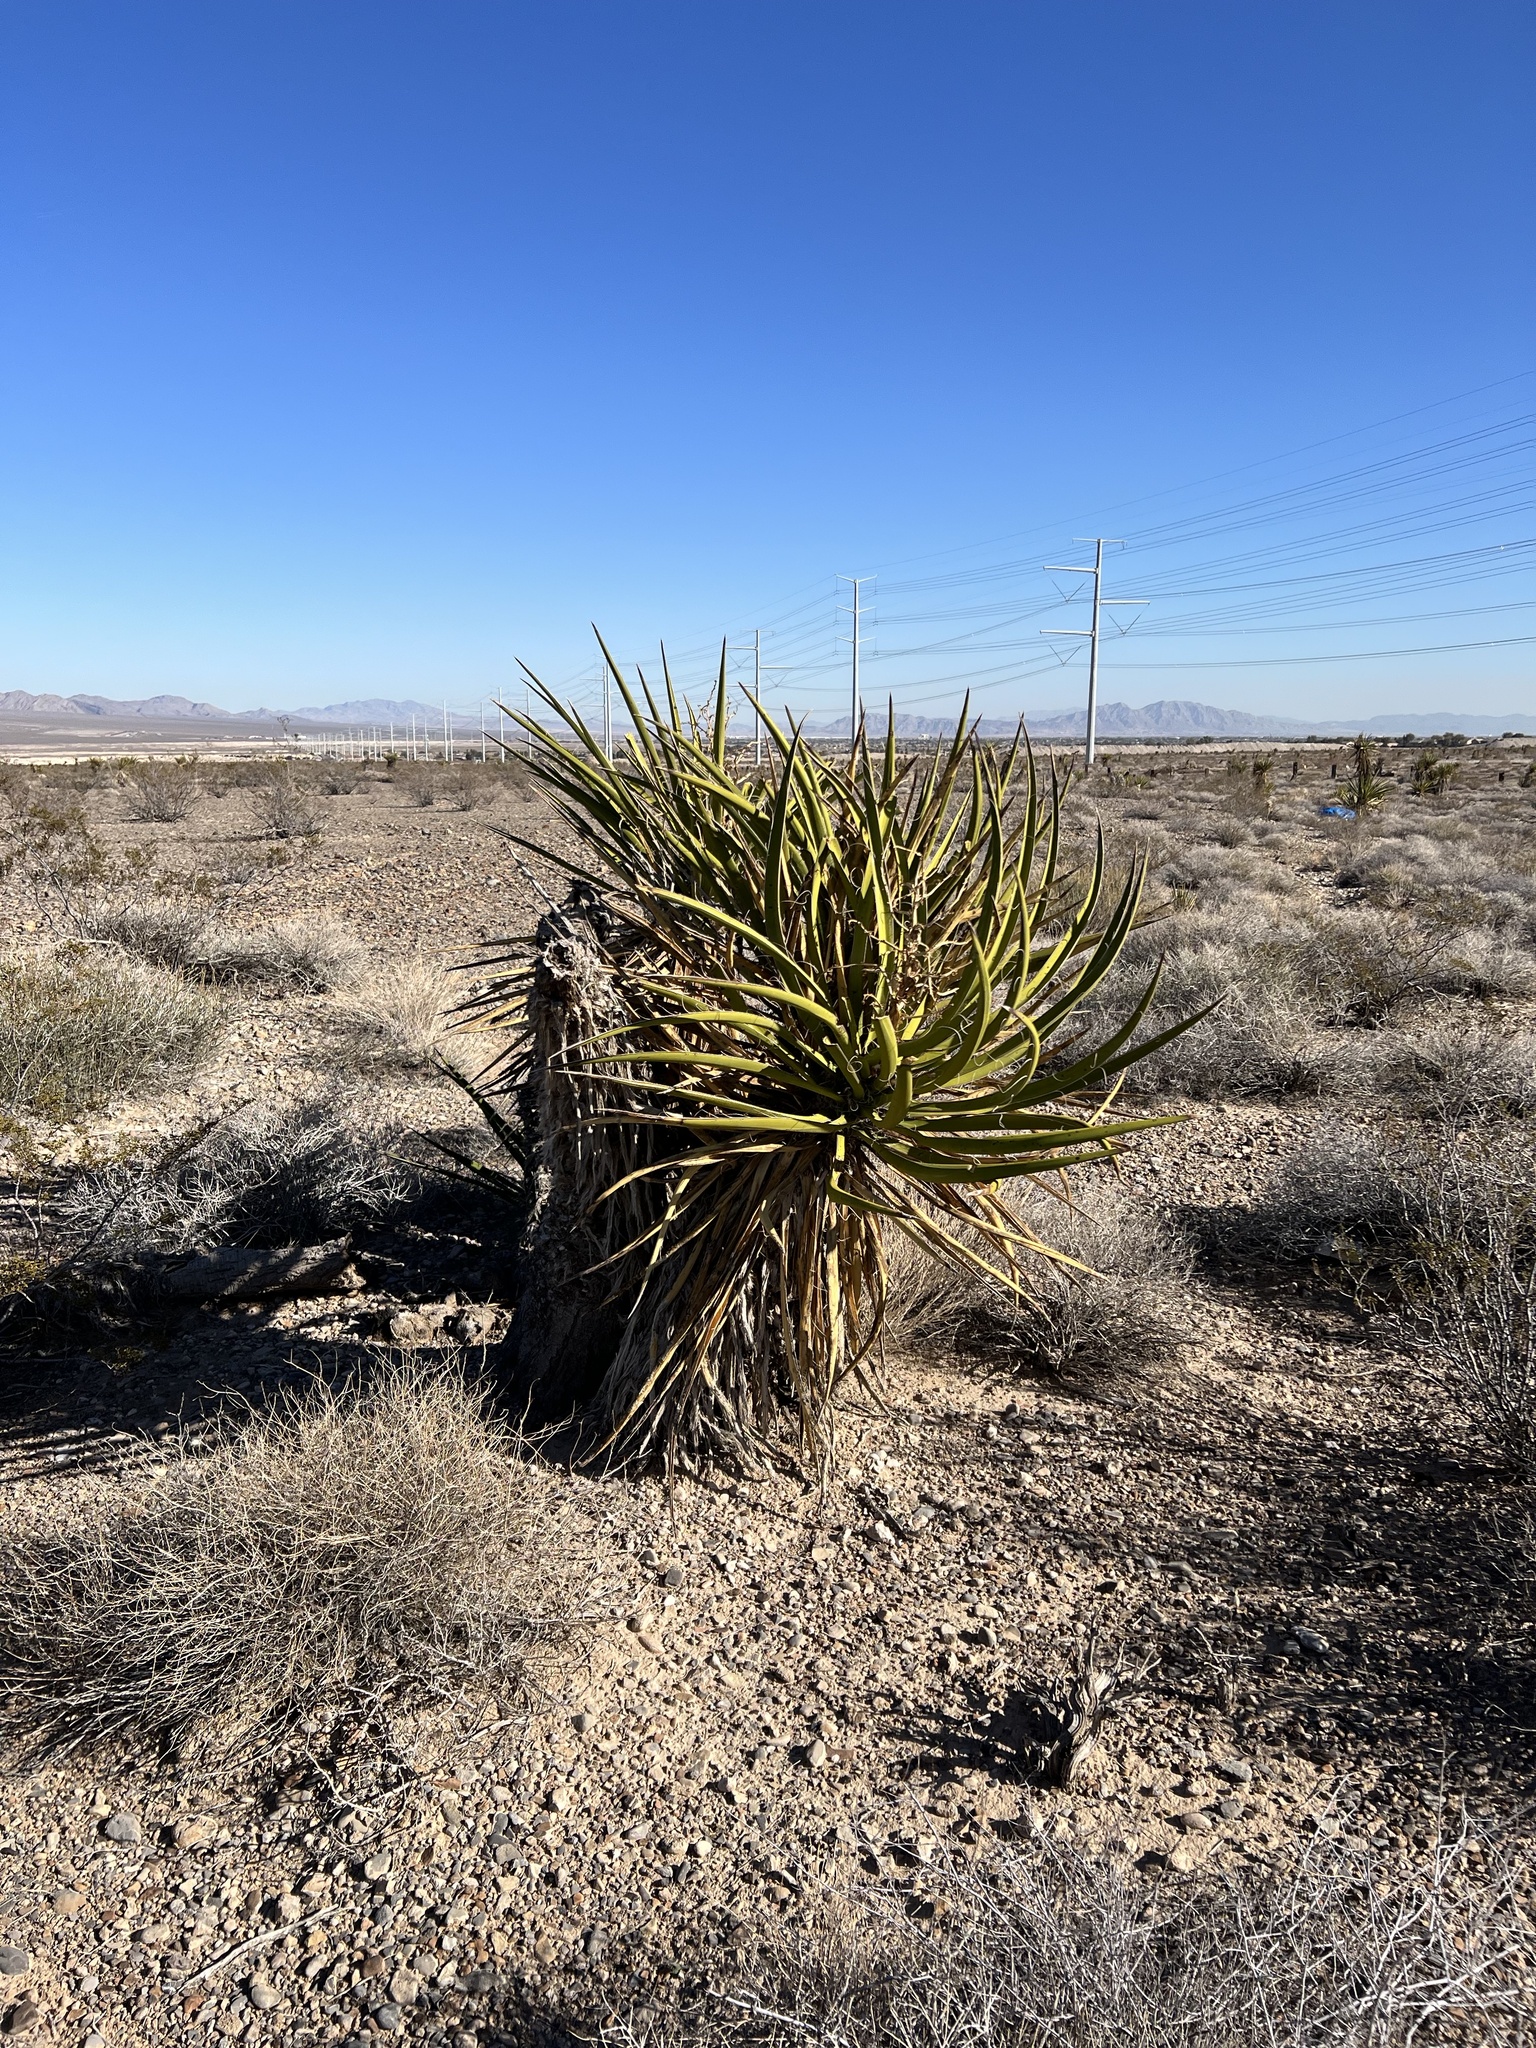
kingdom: Plantae
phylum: Tracheophyta
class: Liliopsida
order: Asparagales
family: Asparagaceae
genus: Yucca
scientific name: Yucca schidigera
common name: Mojave yucca
